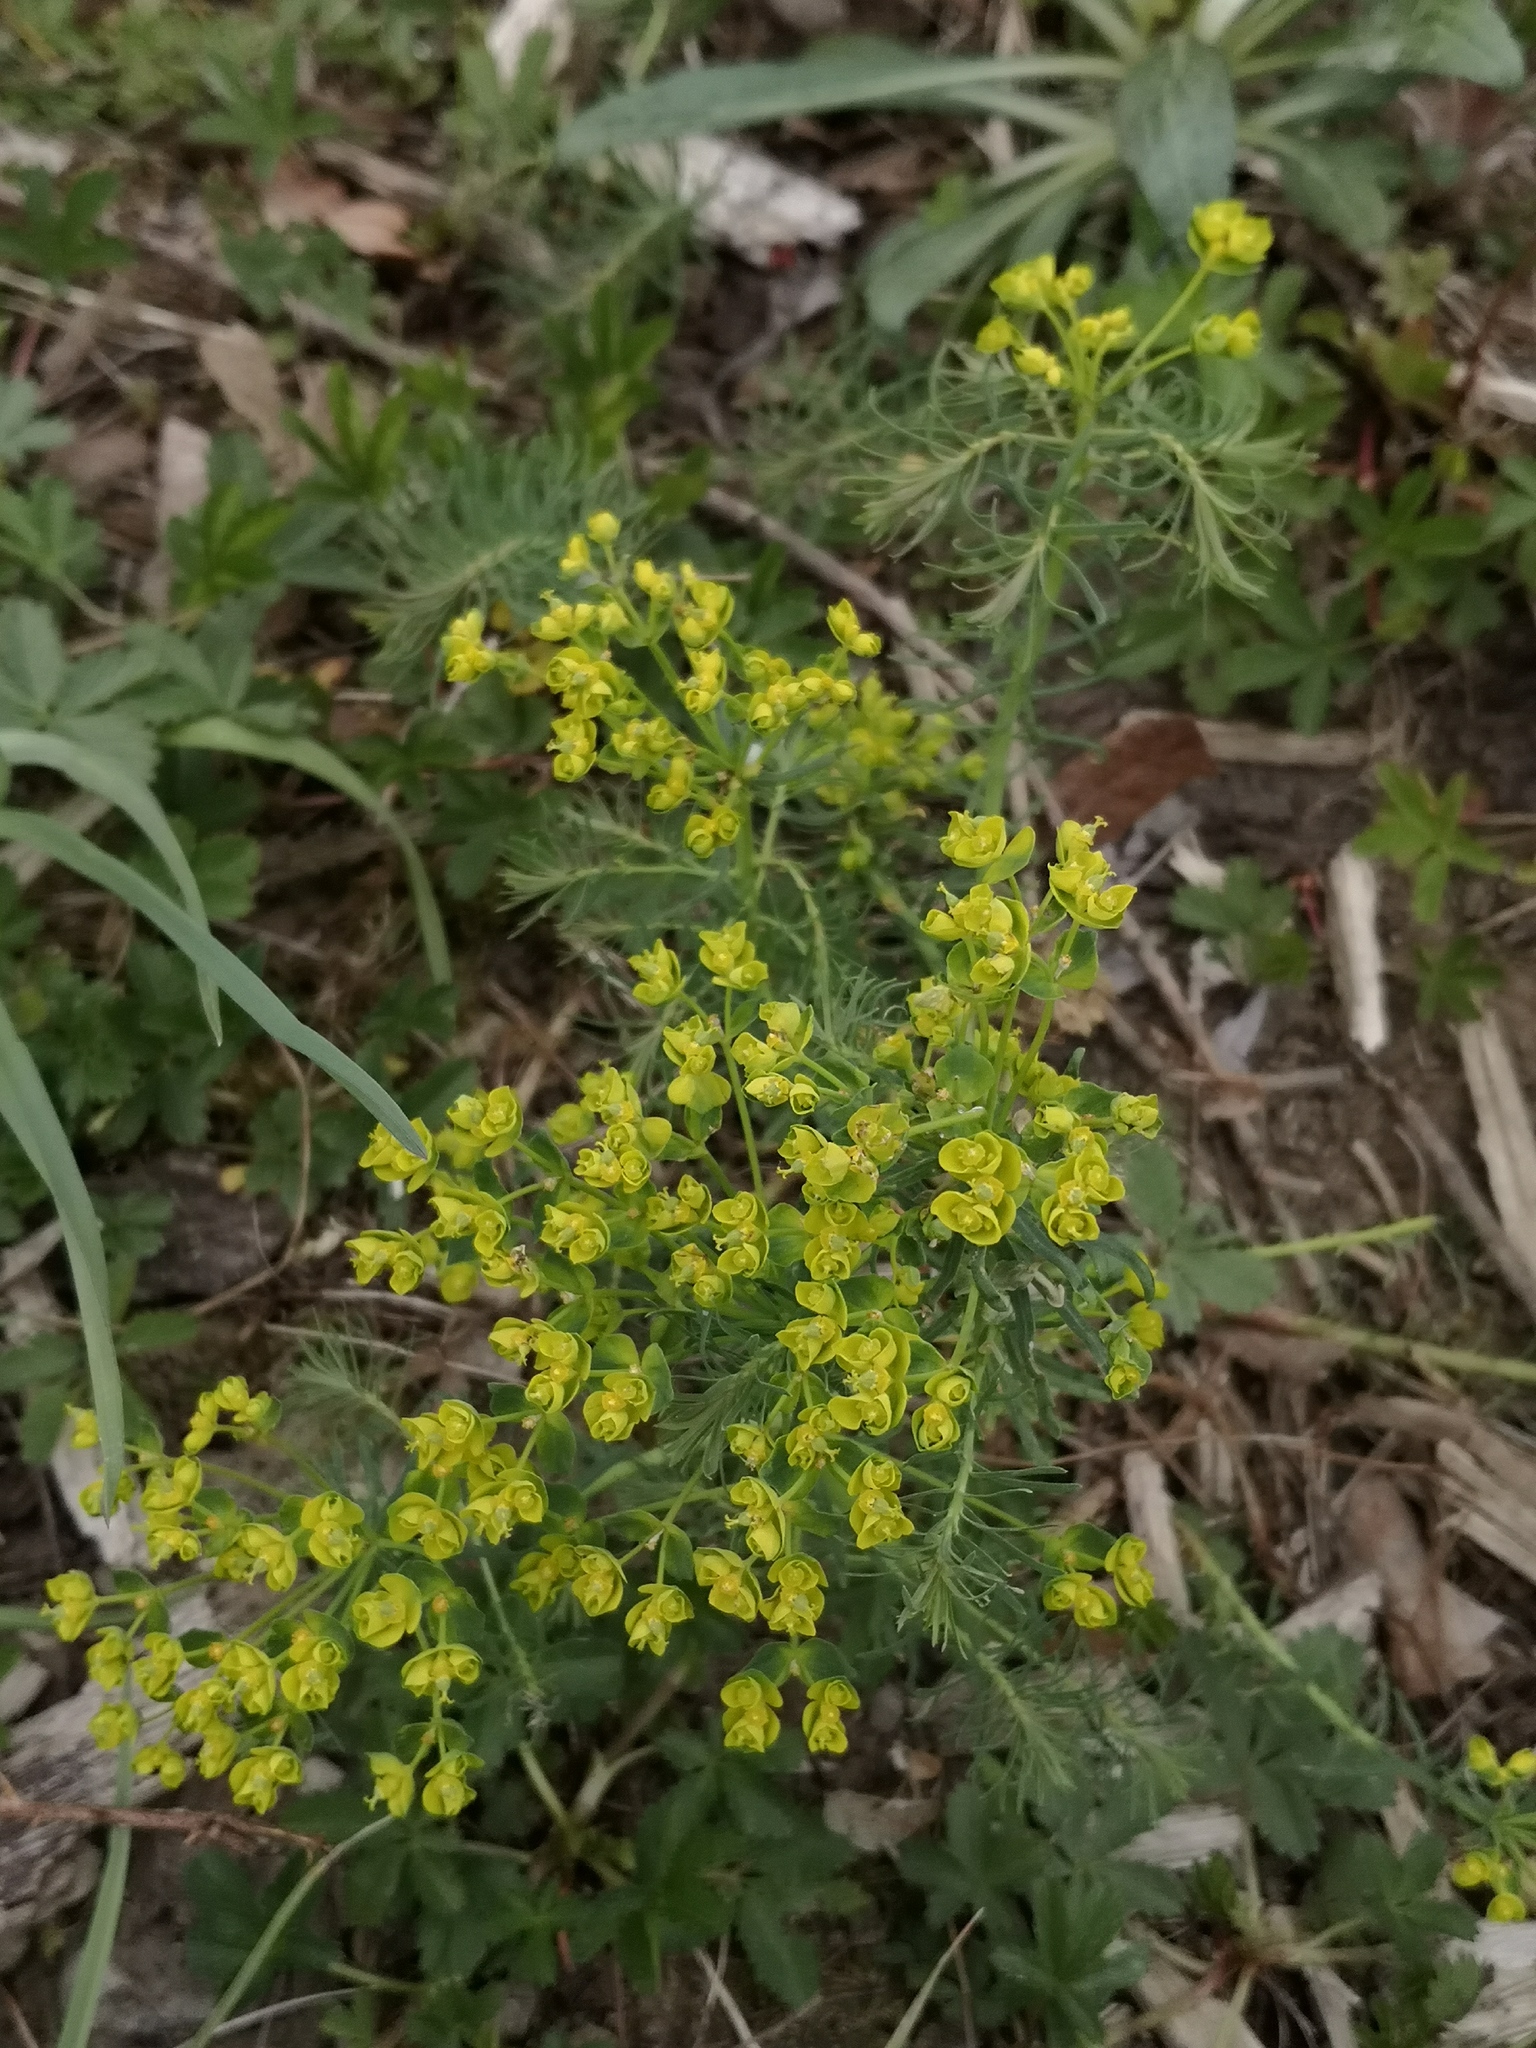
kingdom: Plantae
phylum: Tracheophyta
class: Magnoliopsida
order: Malpighiales
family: Euphorbiaceae
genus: Euphorbia
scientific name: Euphorbia cyparissias
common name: Cypress spurge
